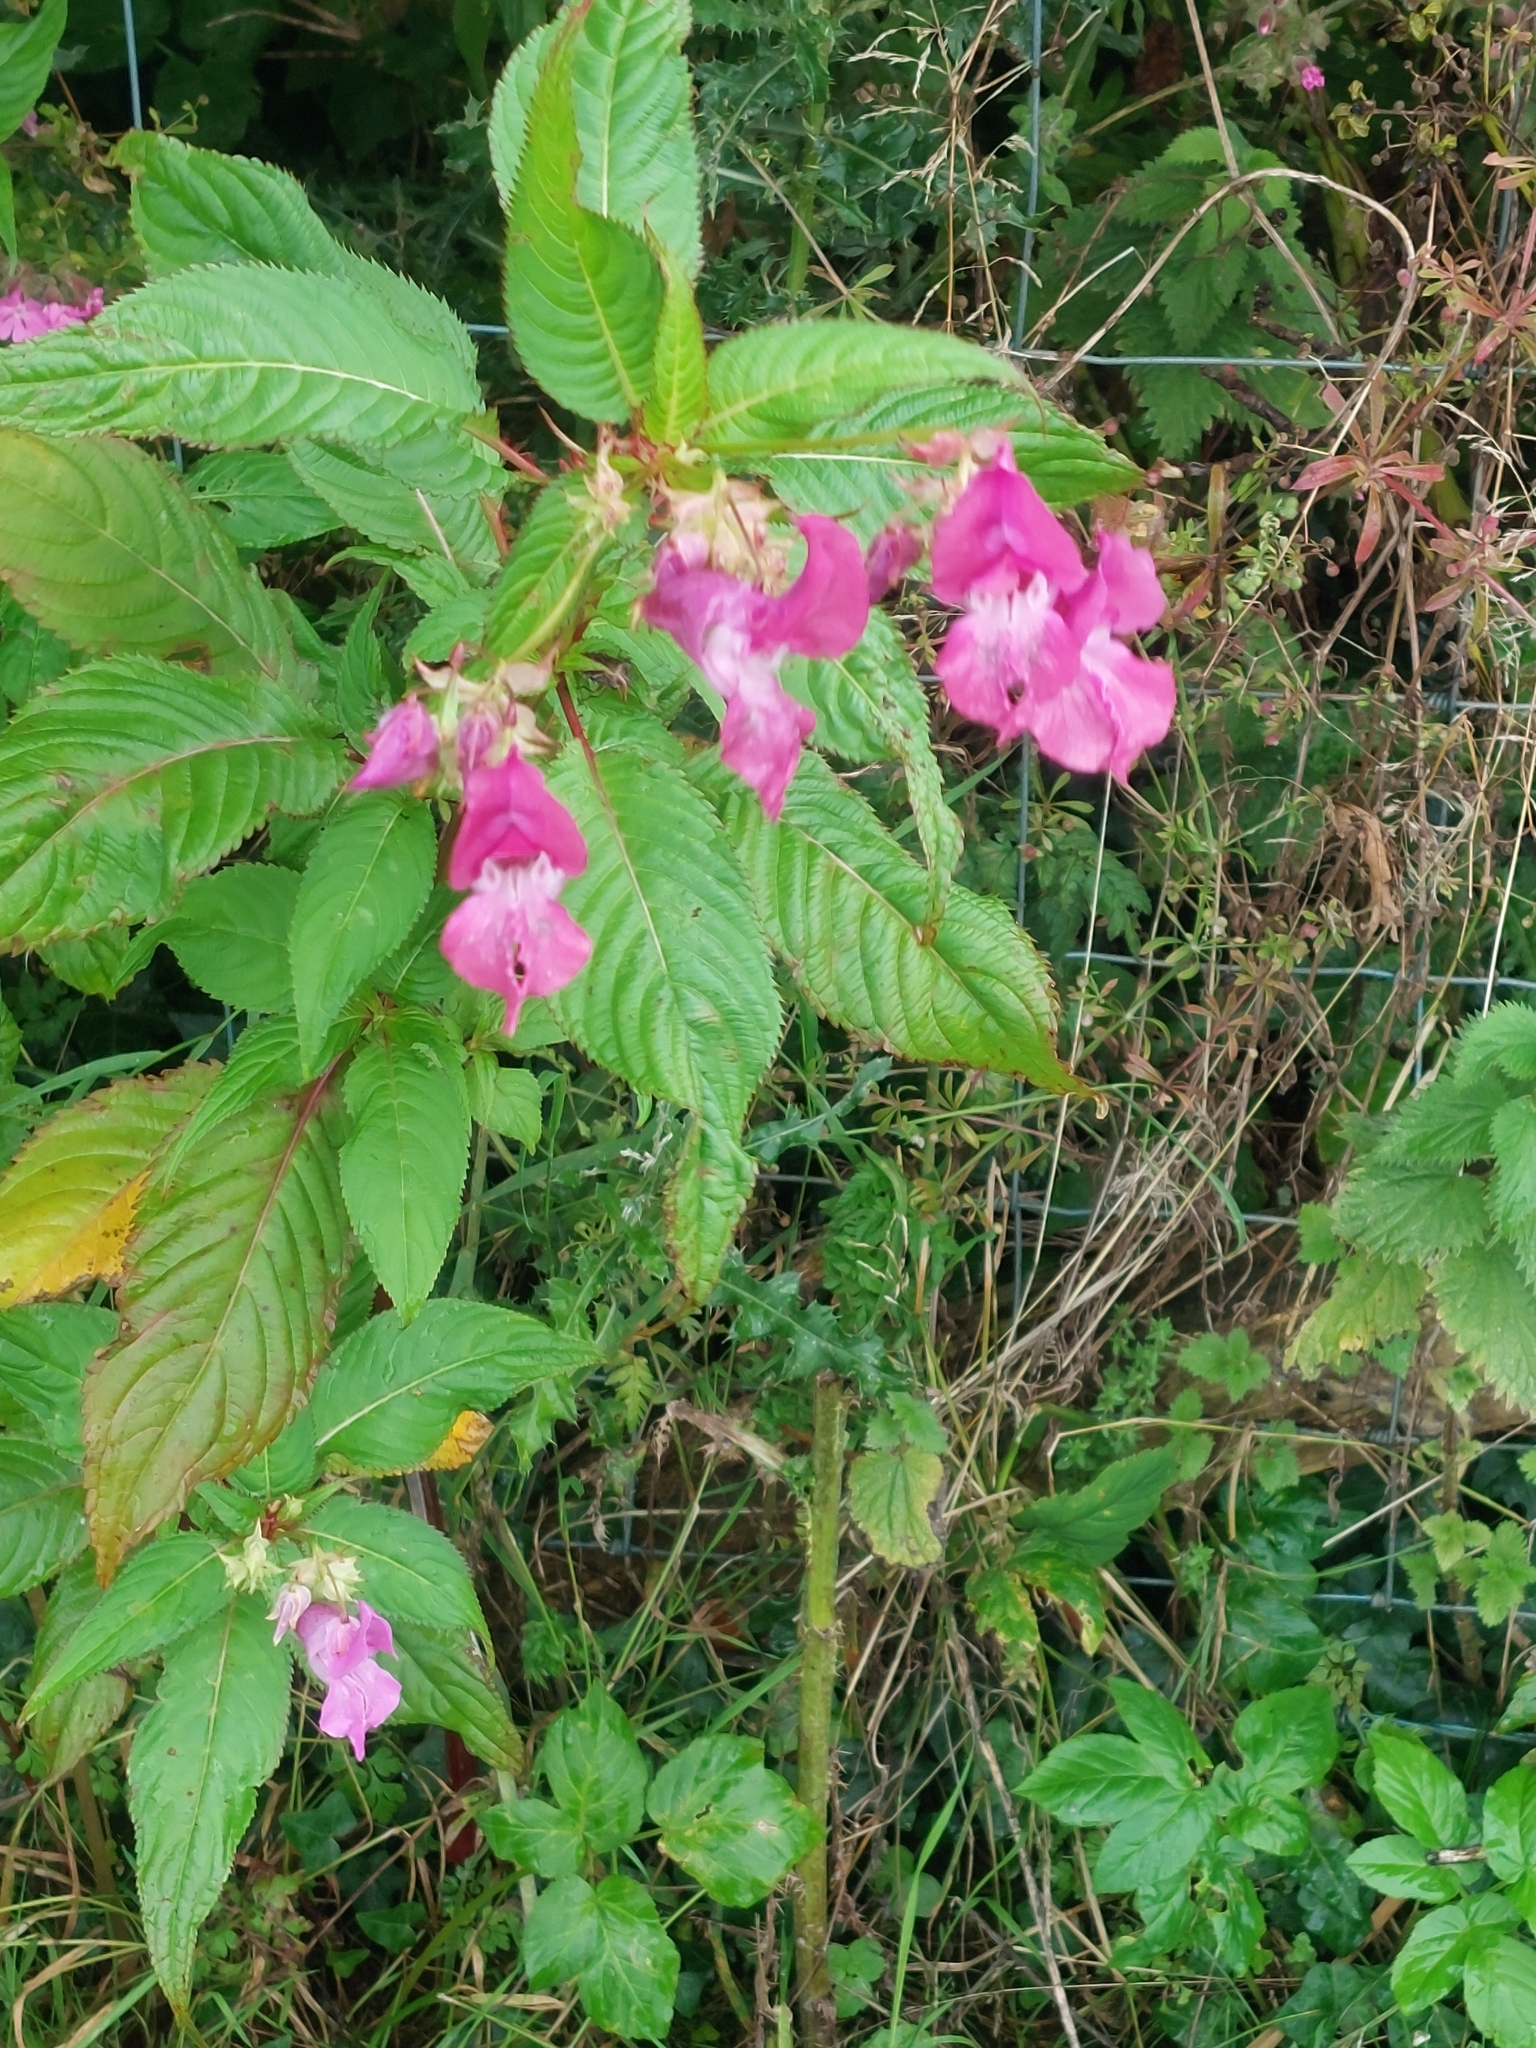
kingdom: Plantae
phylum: Tracheophyta
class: Magnoliopsida
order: Ericales
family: Balsaminaceae
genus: Impatiens
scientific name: Impatiens glandulifera
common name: Himalayan balsam
